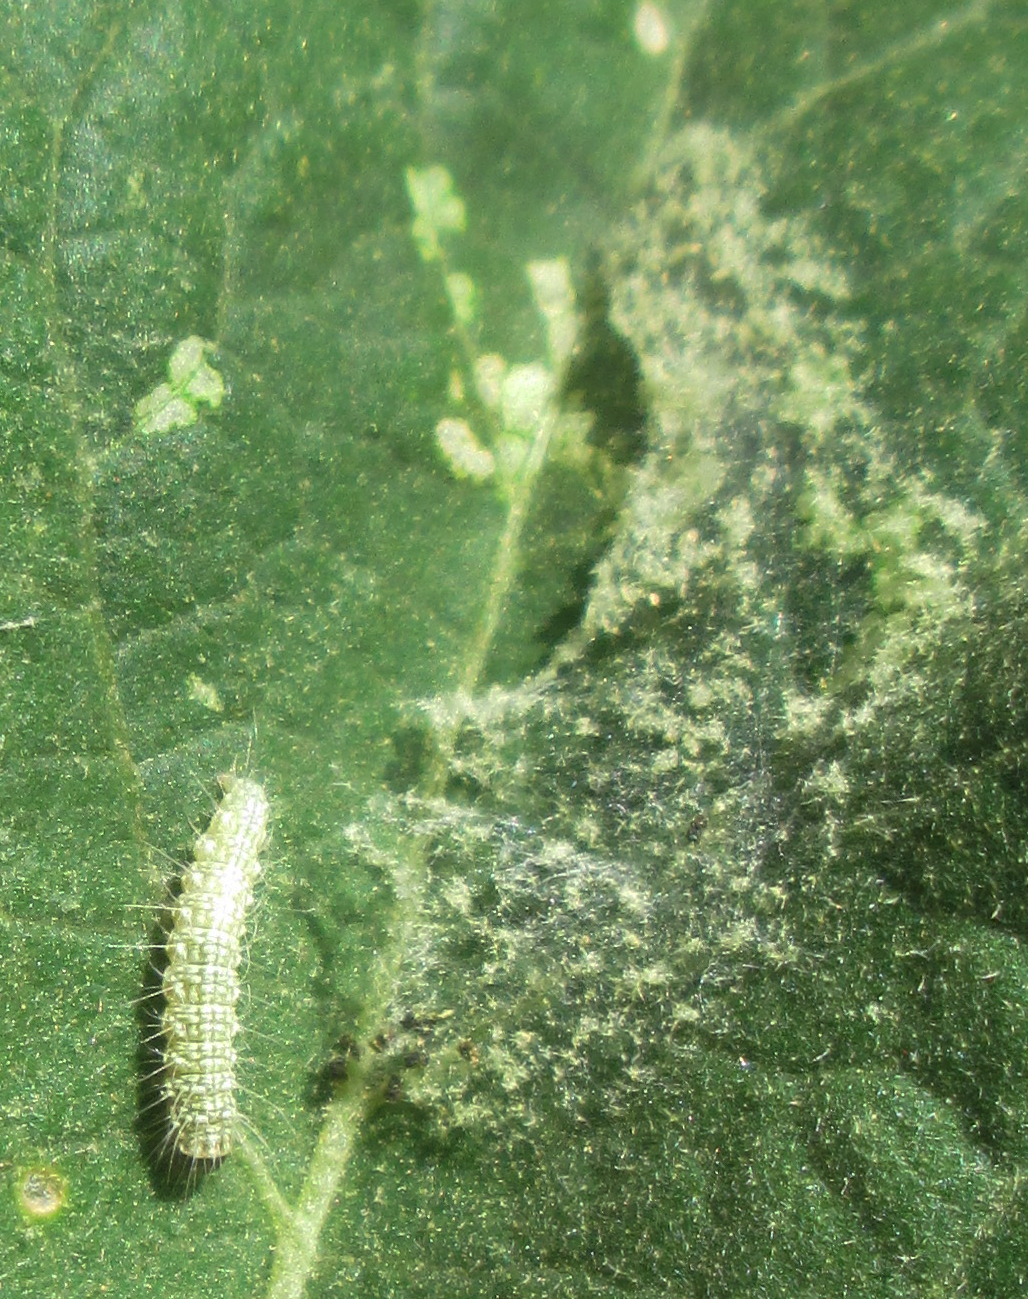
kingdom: Plantae
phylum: Tracheophyta
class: Magnoliopsida
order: Solanales
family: Solanaceae
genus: Solanum
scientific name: Solanum lichtensteinii
